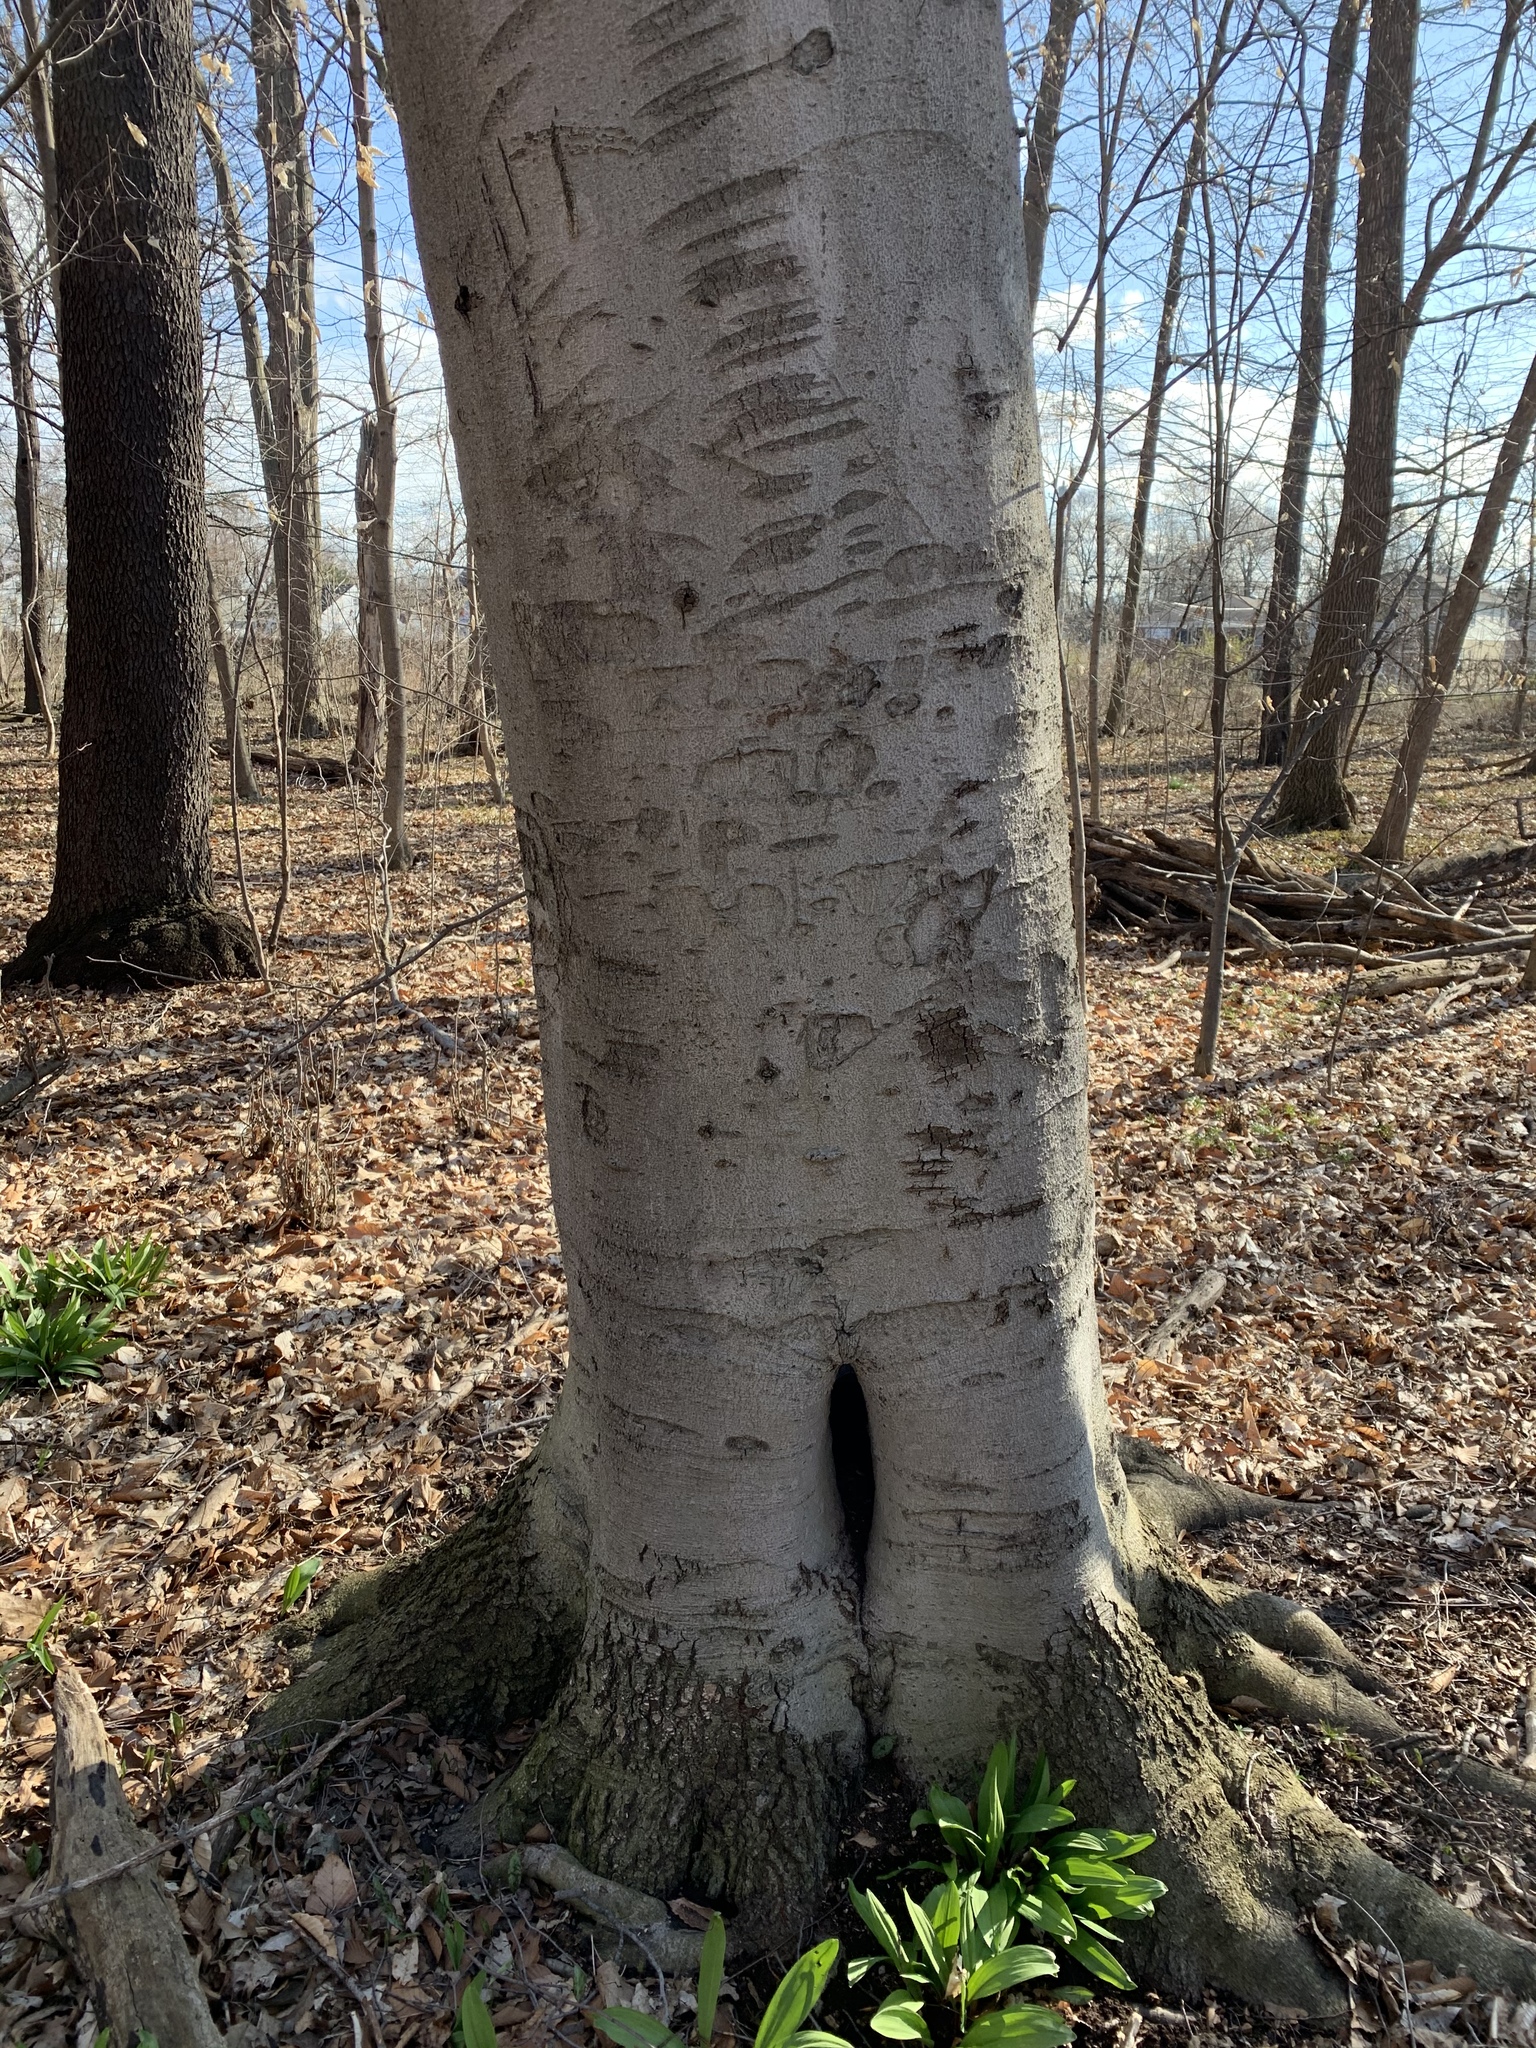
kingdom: Plantae
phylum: Tracheophyta
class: Magnoliopsida
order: Fagales
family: Fagaceae
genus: Fagus
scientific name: Fagus grandifolia
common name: American beech
